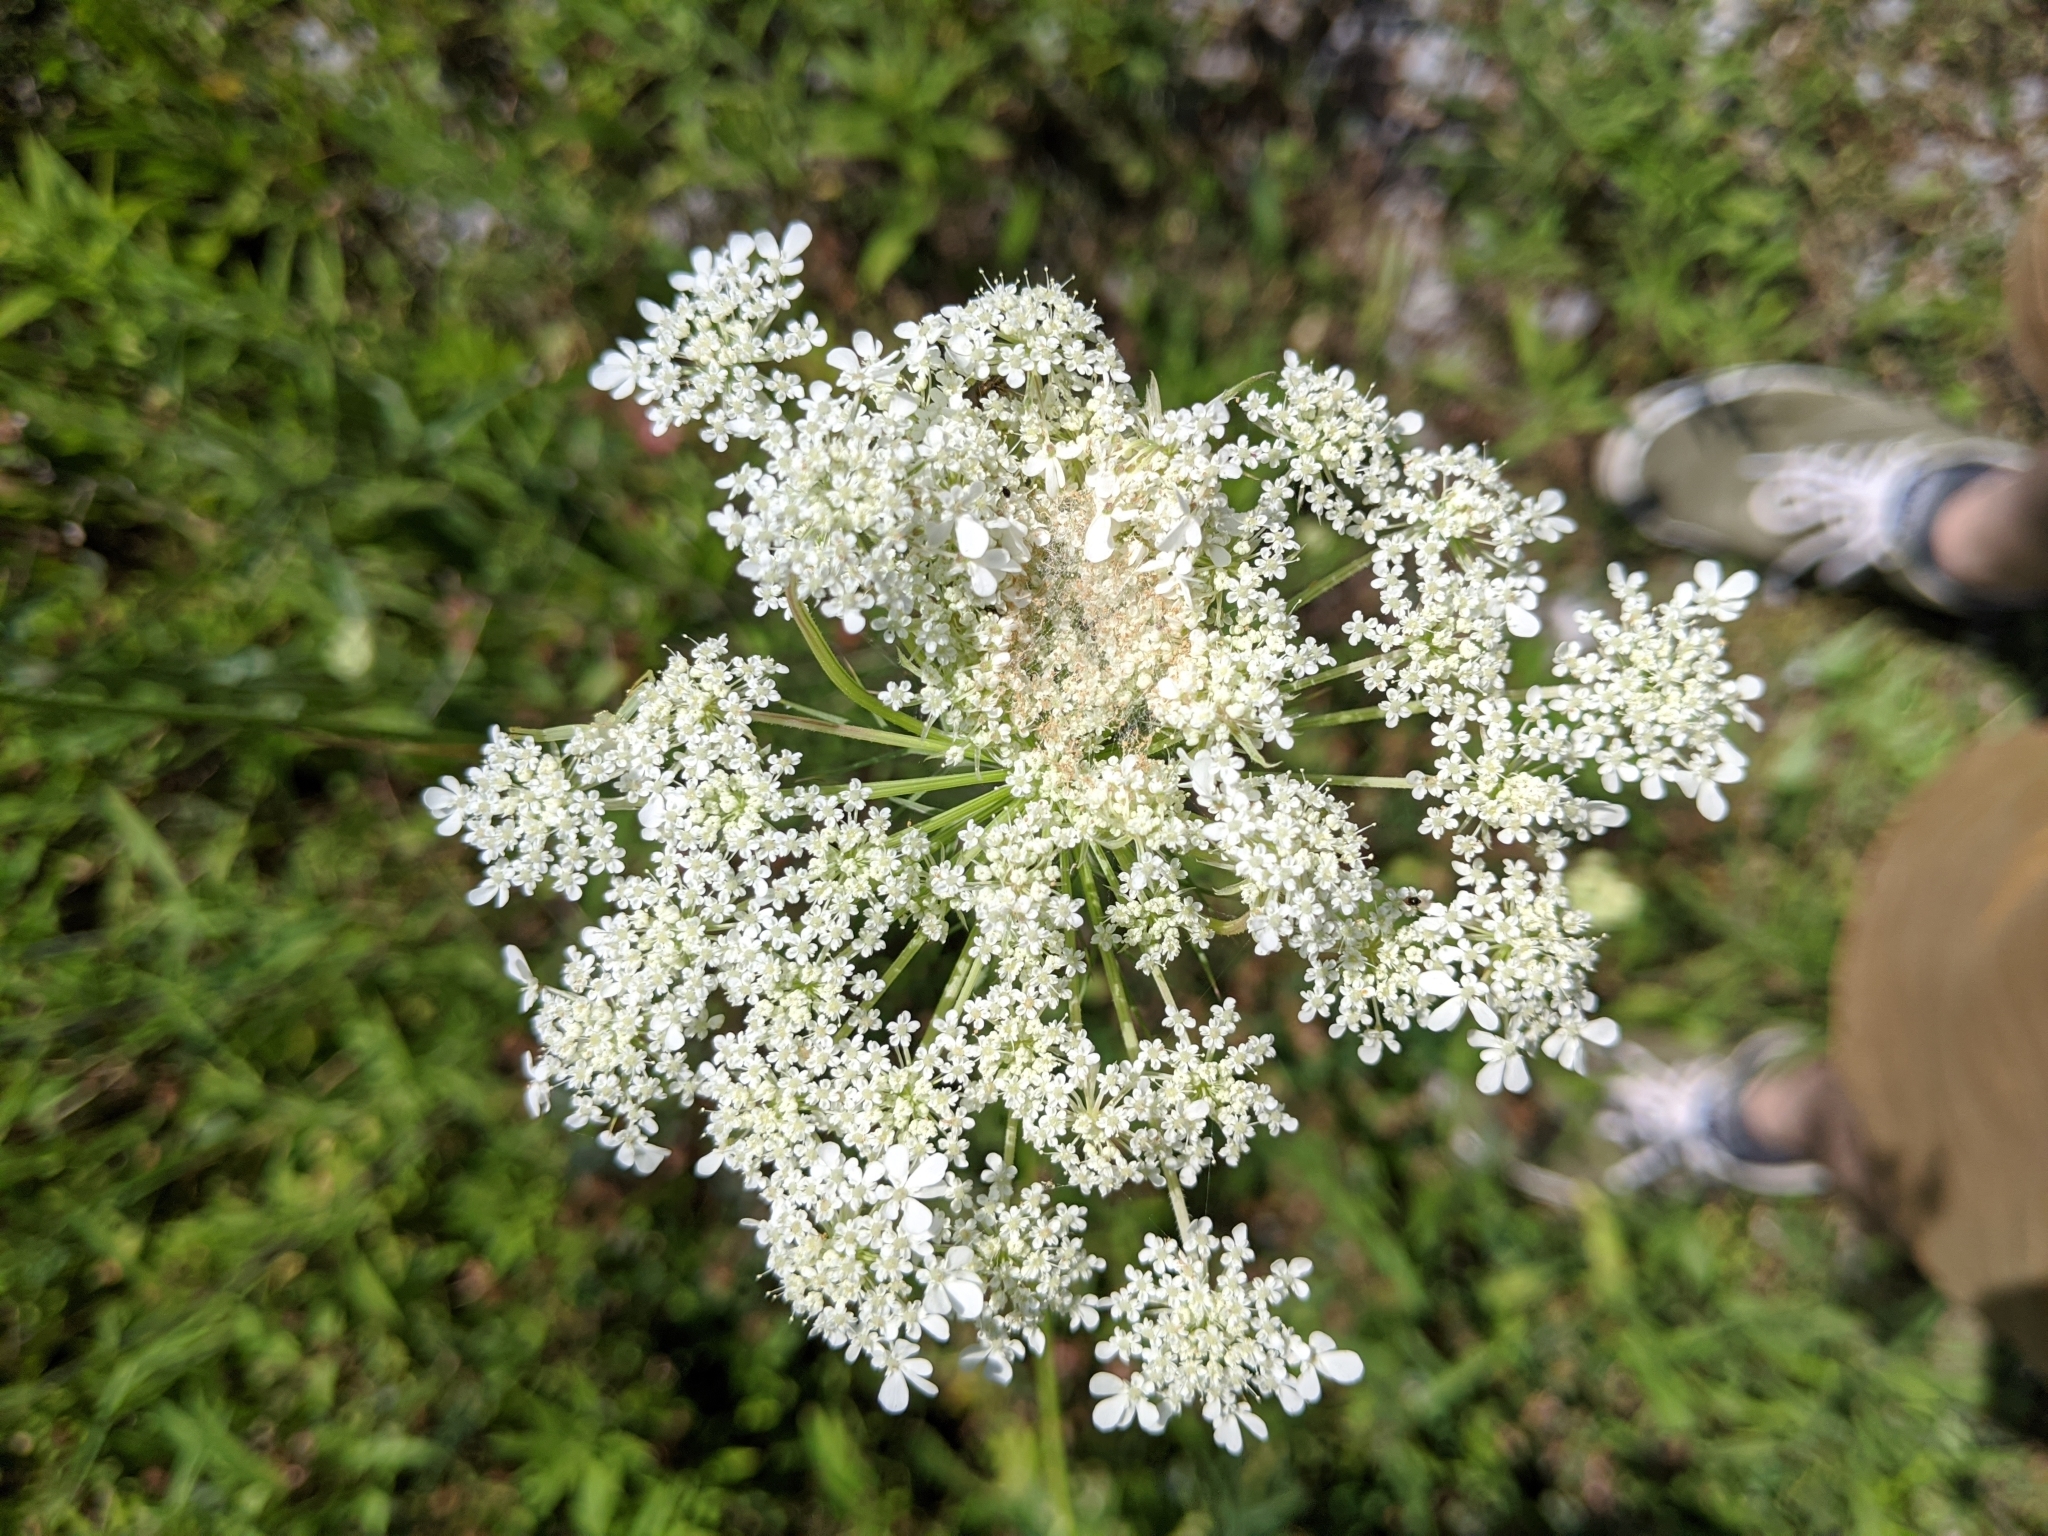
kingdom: Plantae
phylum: Tracheophyta
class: Magnoliopsida
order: Apiales
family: Apiaceae
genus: Daucus
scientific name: Daucus carota
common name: Wild carrot
